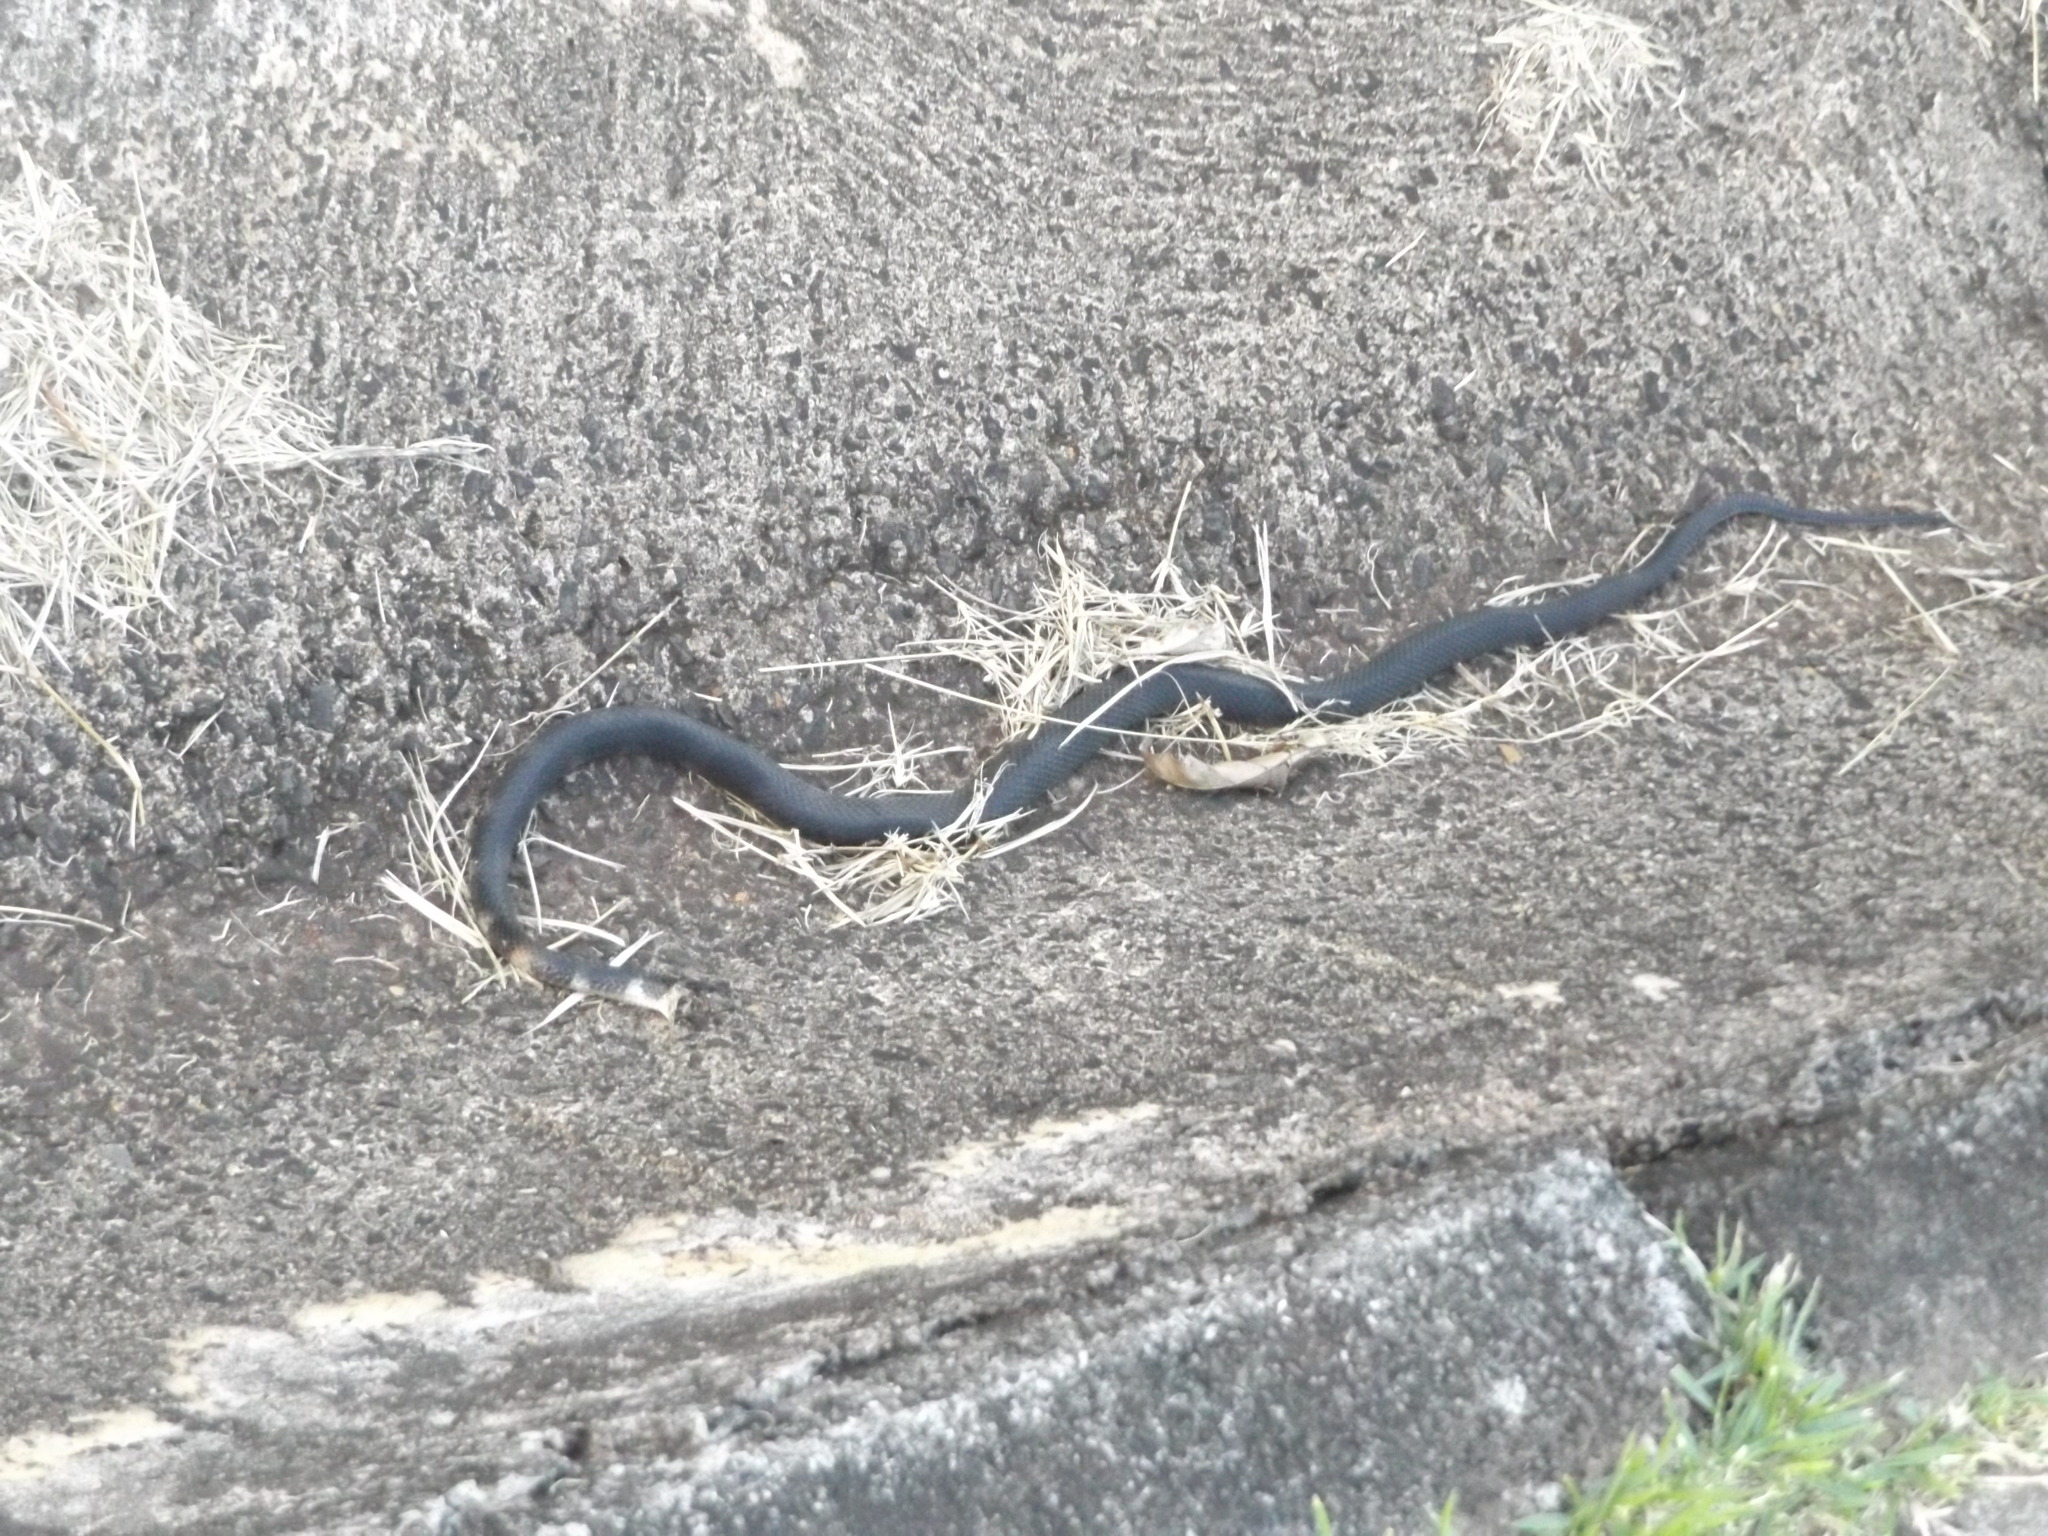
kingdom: Animalia
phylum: Chordata
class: Squamata
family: Colubridae
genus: Oxyrhopus
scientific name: Oxyrhopus petolarius
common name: Forest flame snake
